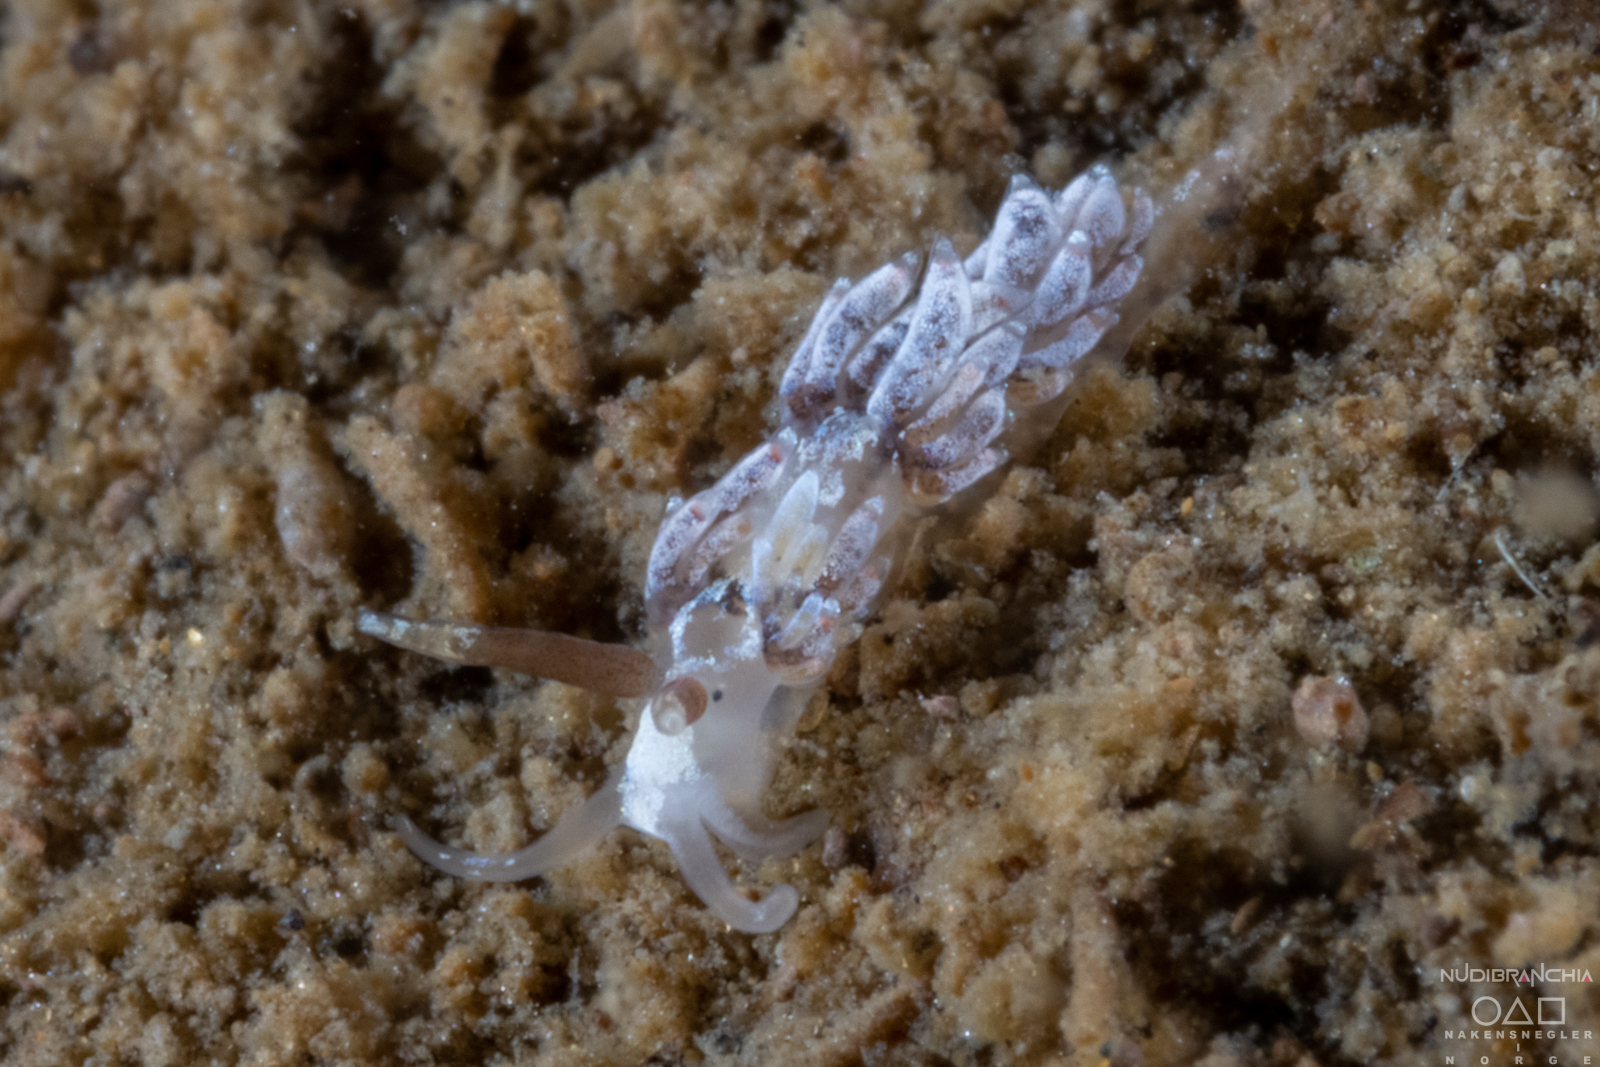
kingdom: Animalia
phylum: Mollusca
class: Gastropoda
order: Nudibranchia
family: Facelinidae
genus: Favorinus
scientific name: Favorinus branchialis
